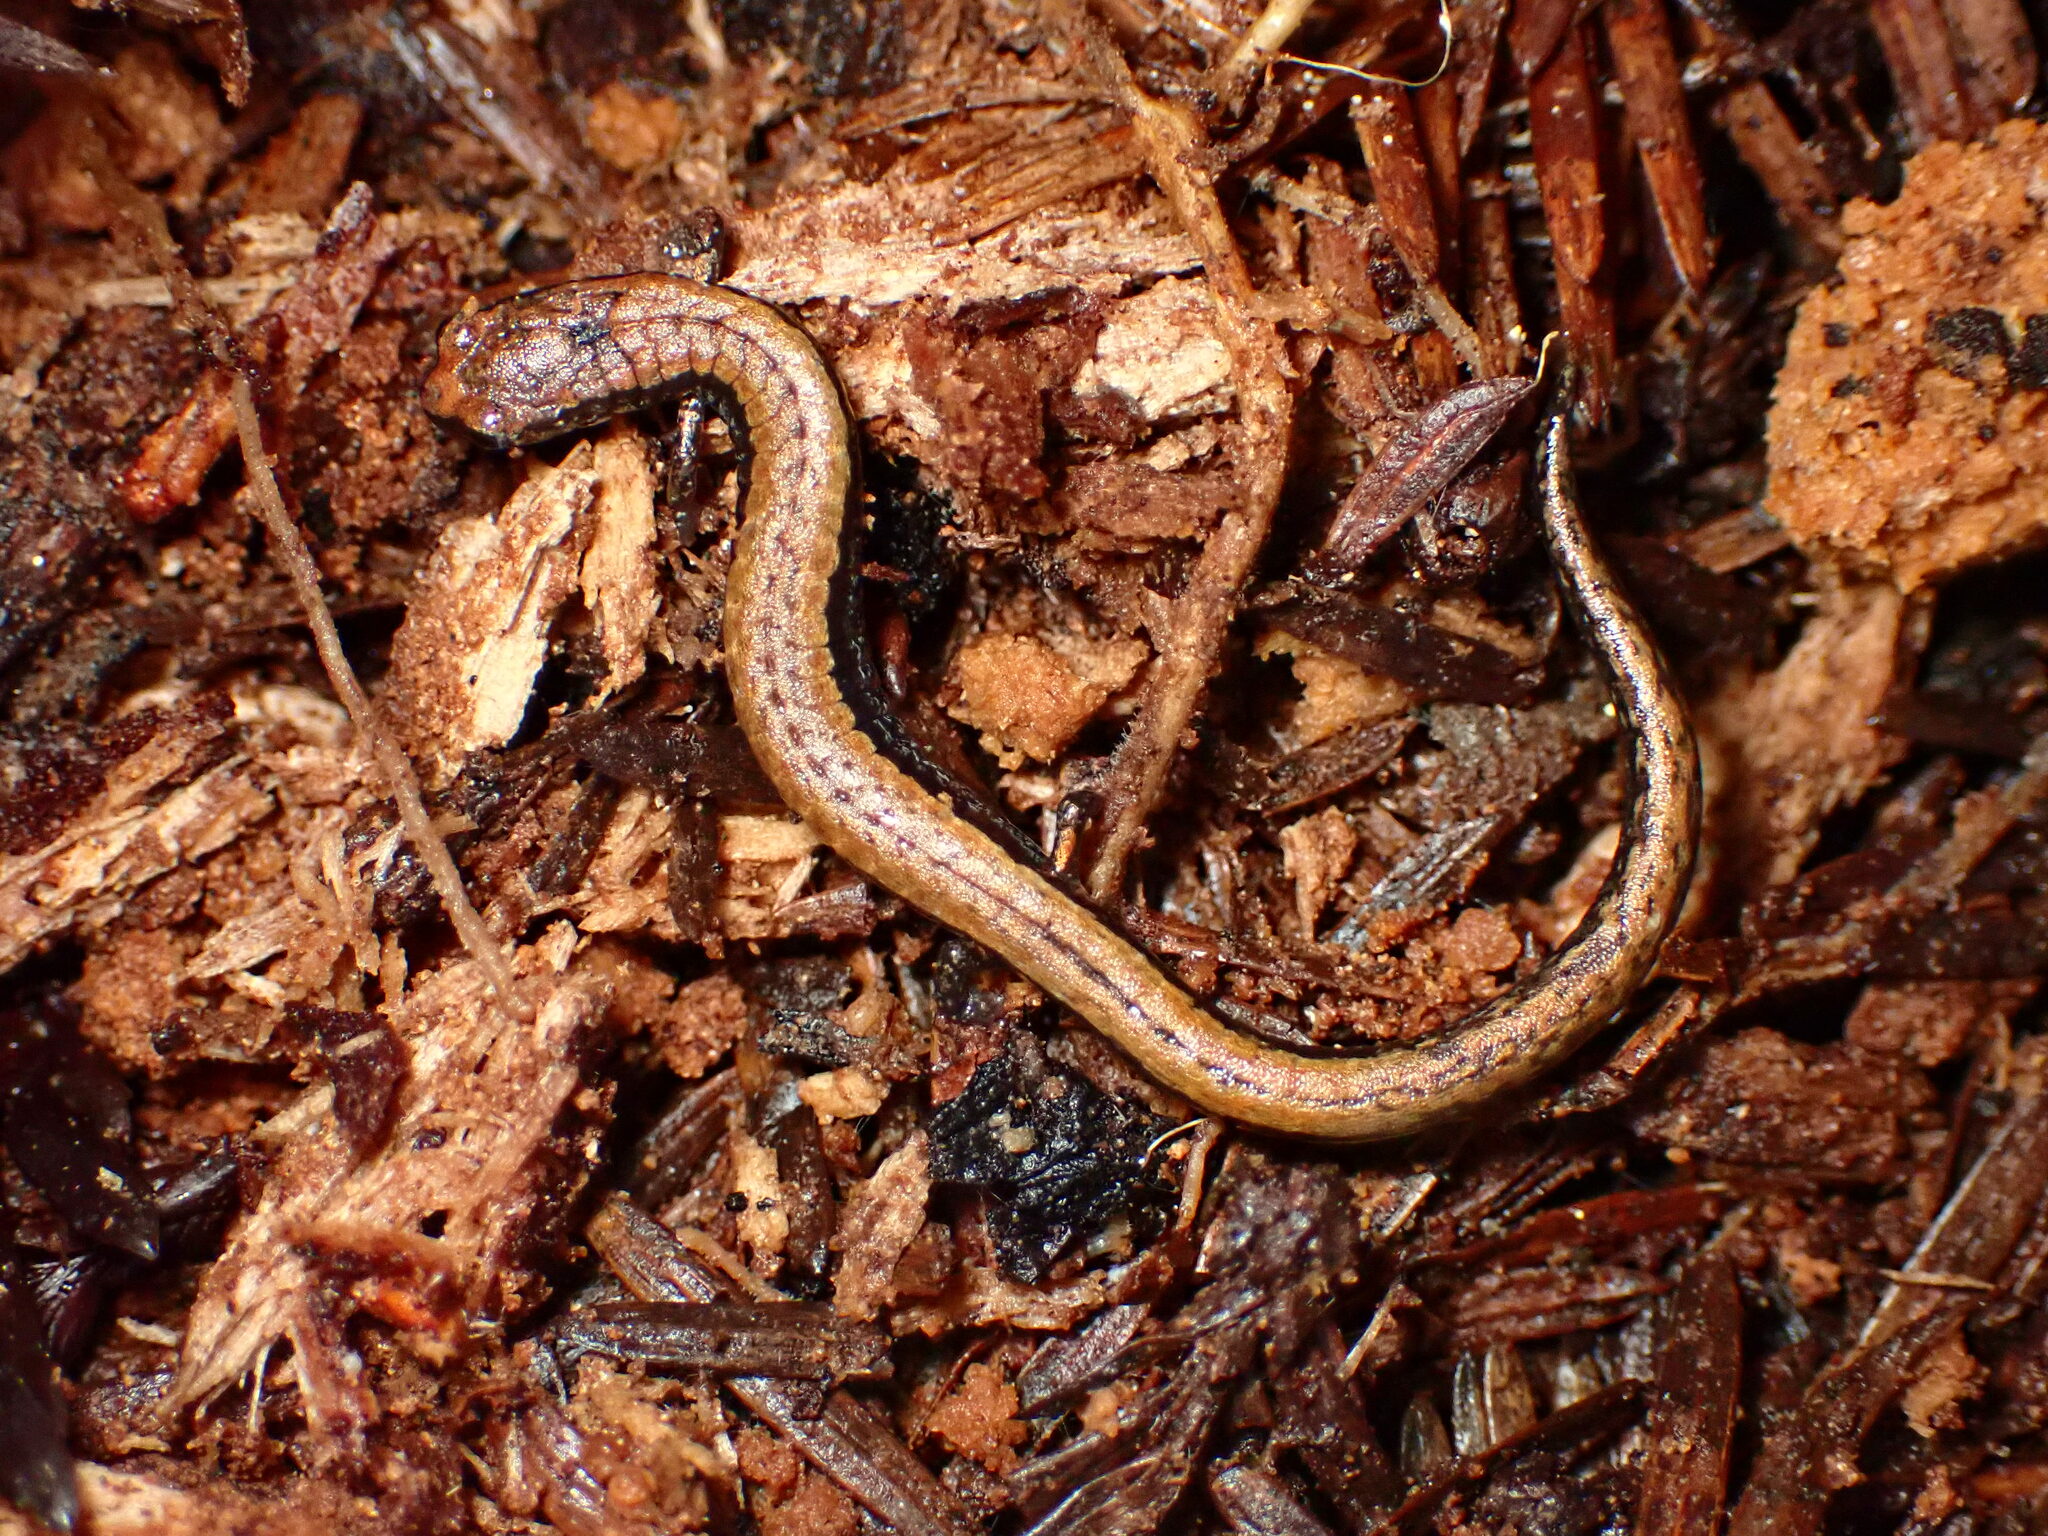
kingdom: Animalia
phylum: Chordata
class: Amphibia
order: Caudata
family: Plethodontidae
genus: Batrachoseps
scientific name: Batrachoseps attenuatus
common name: California slender salamander
